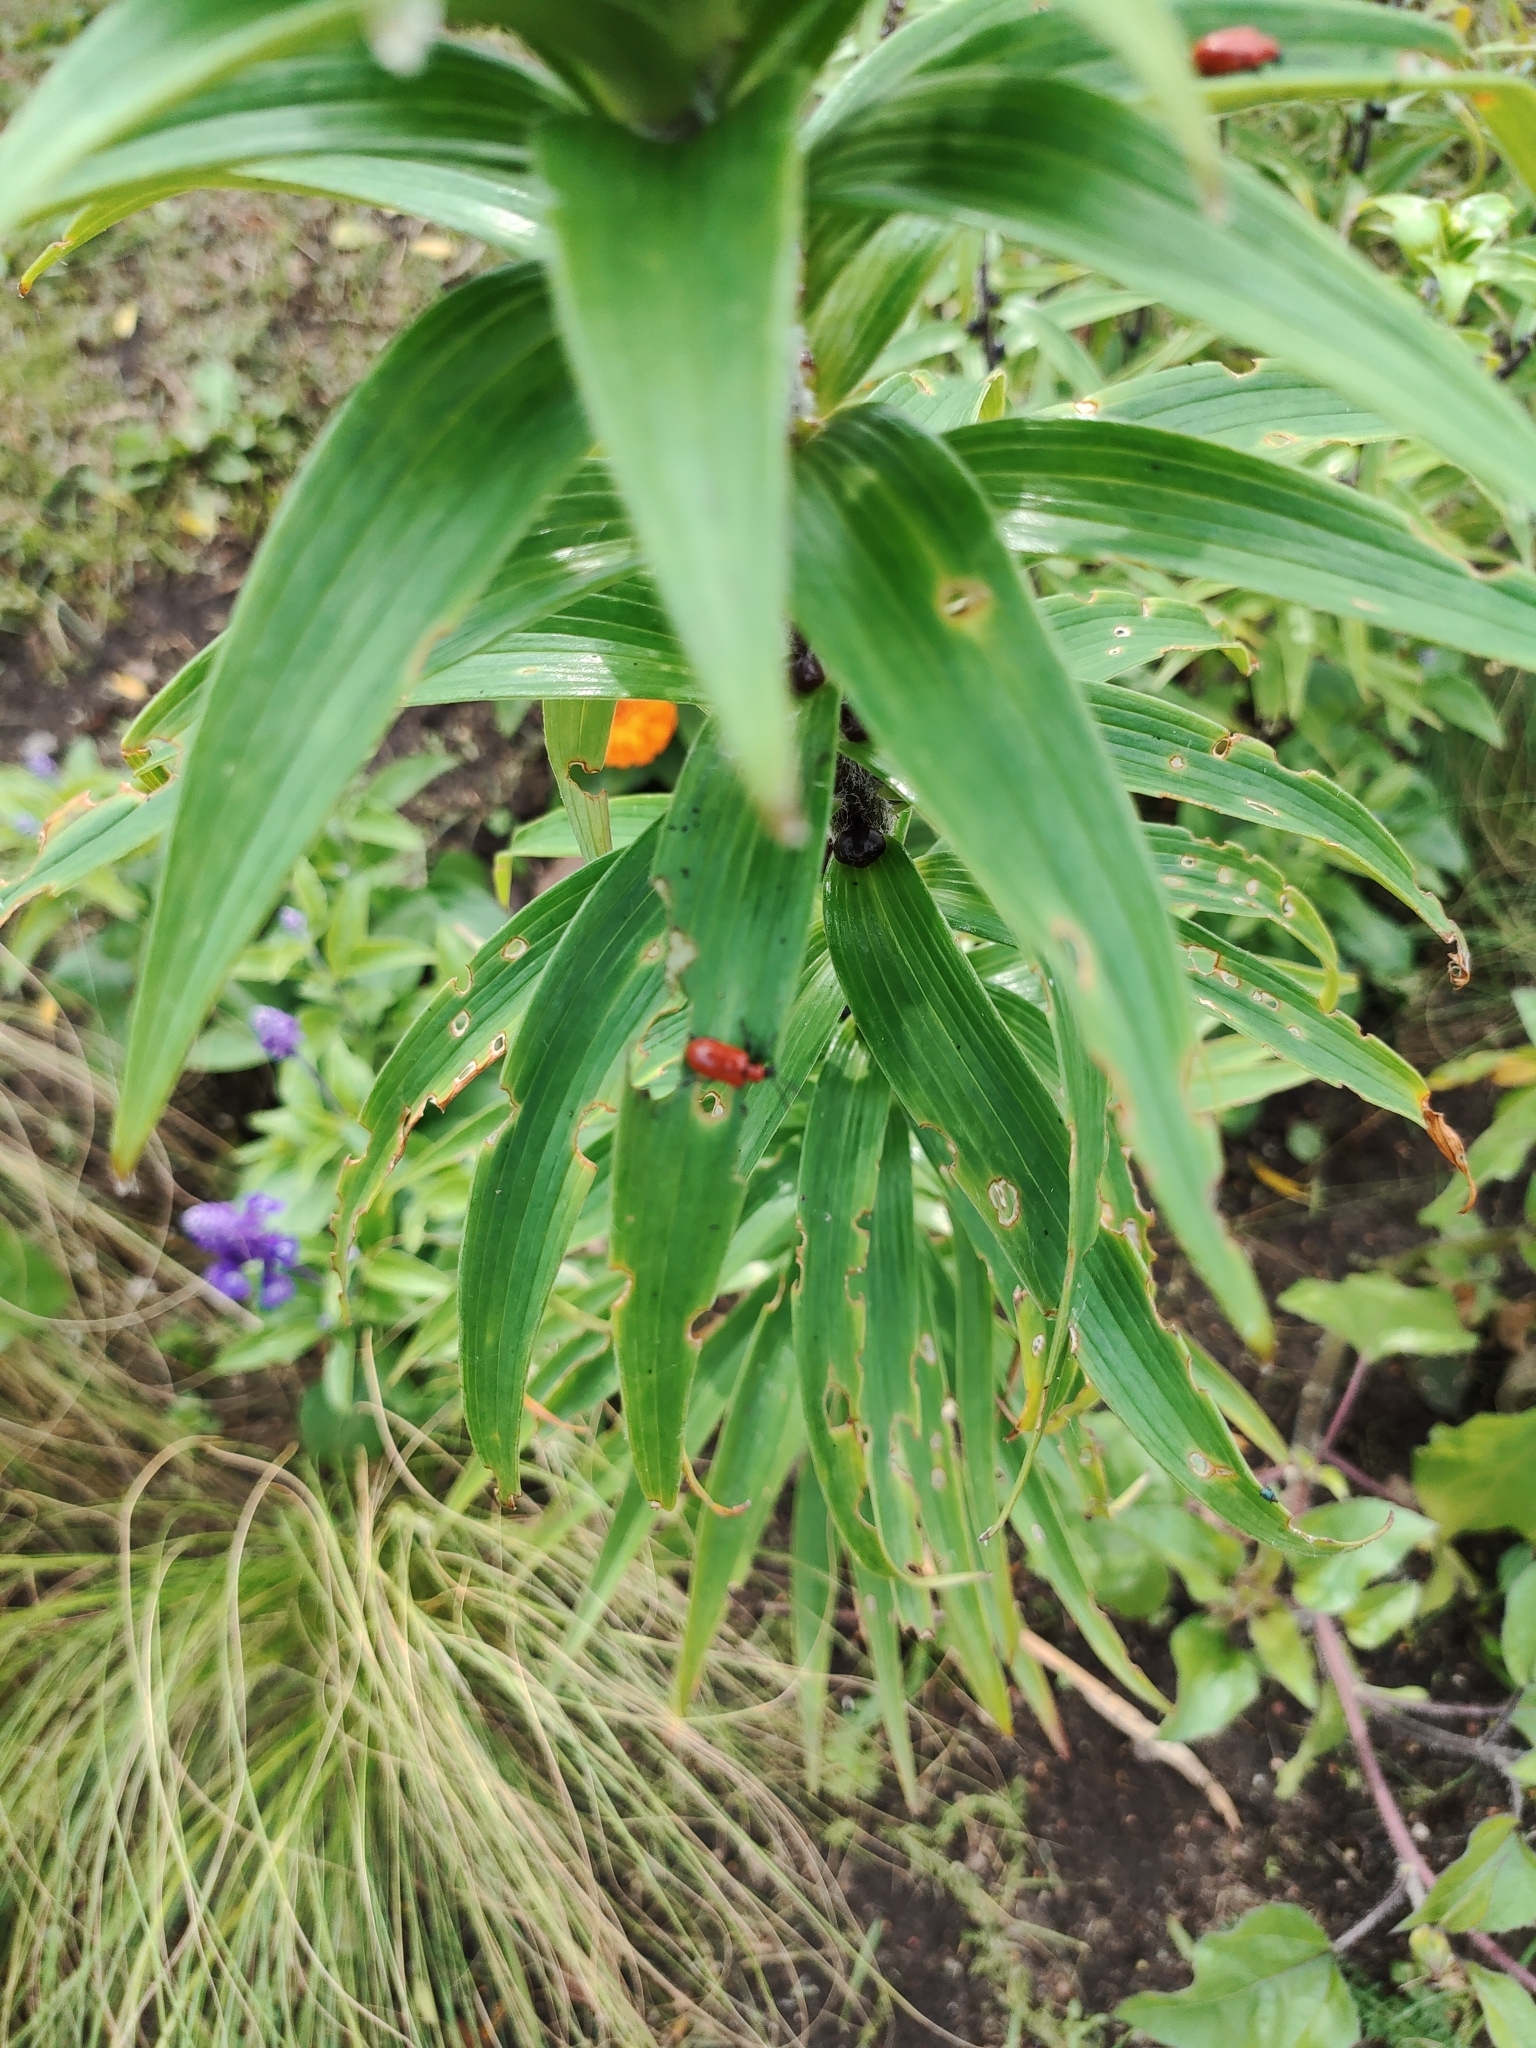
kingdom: Animalia
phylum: Arthropoda
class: Insecta
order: Coleoptera
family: Chrysomelidae
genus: Lilioceris
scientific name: Lilioceris lilii
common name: Lily beetle
